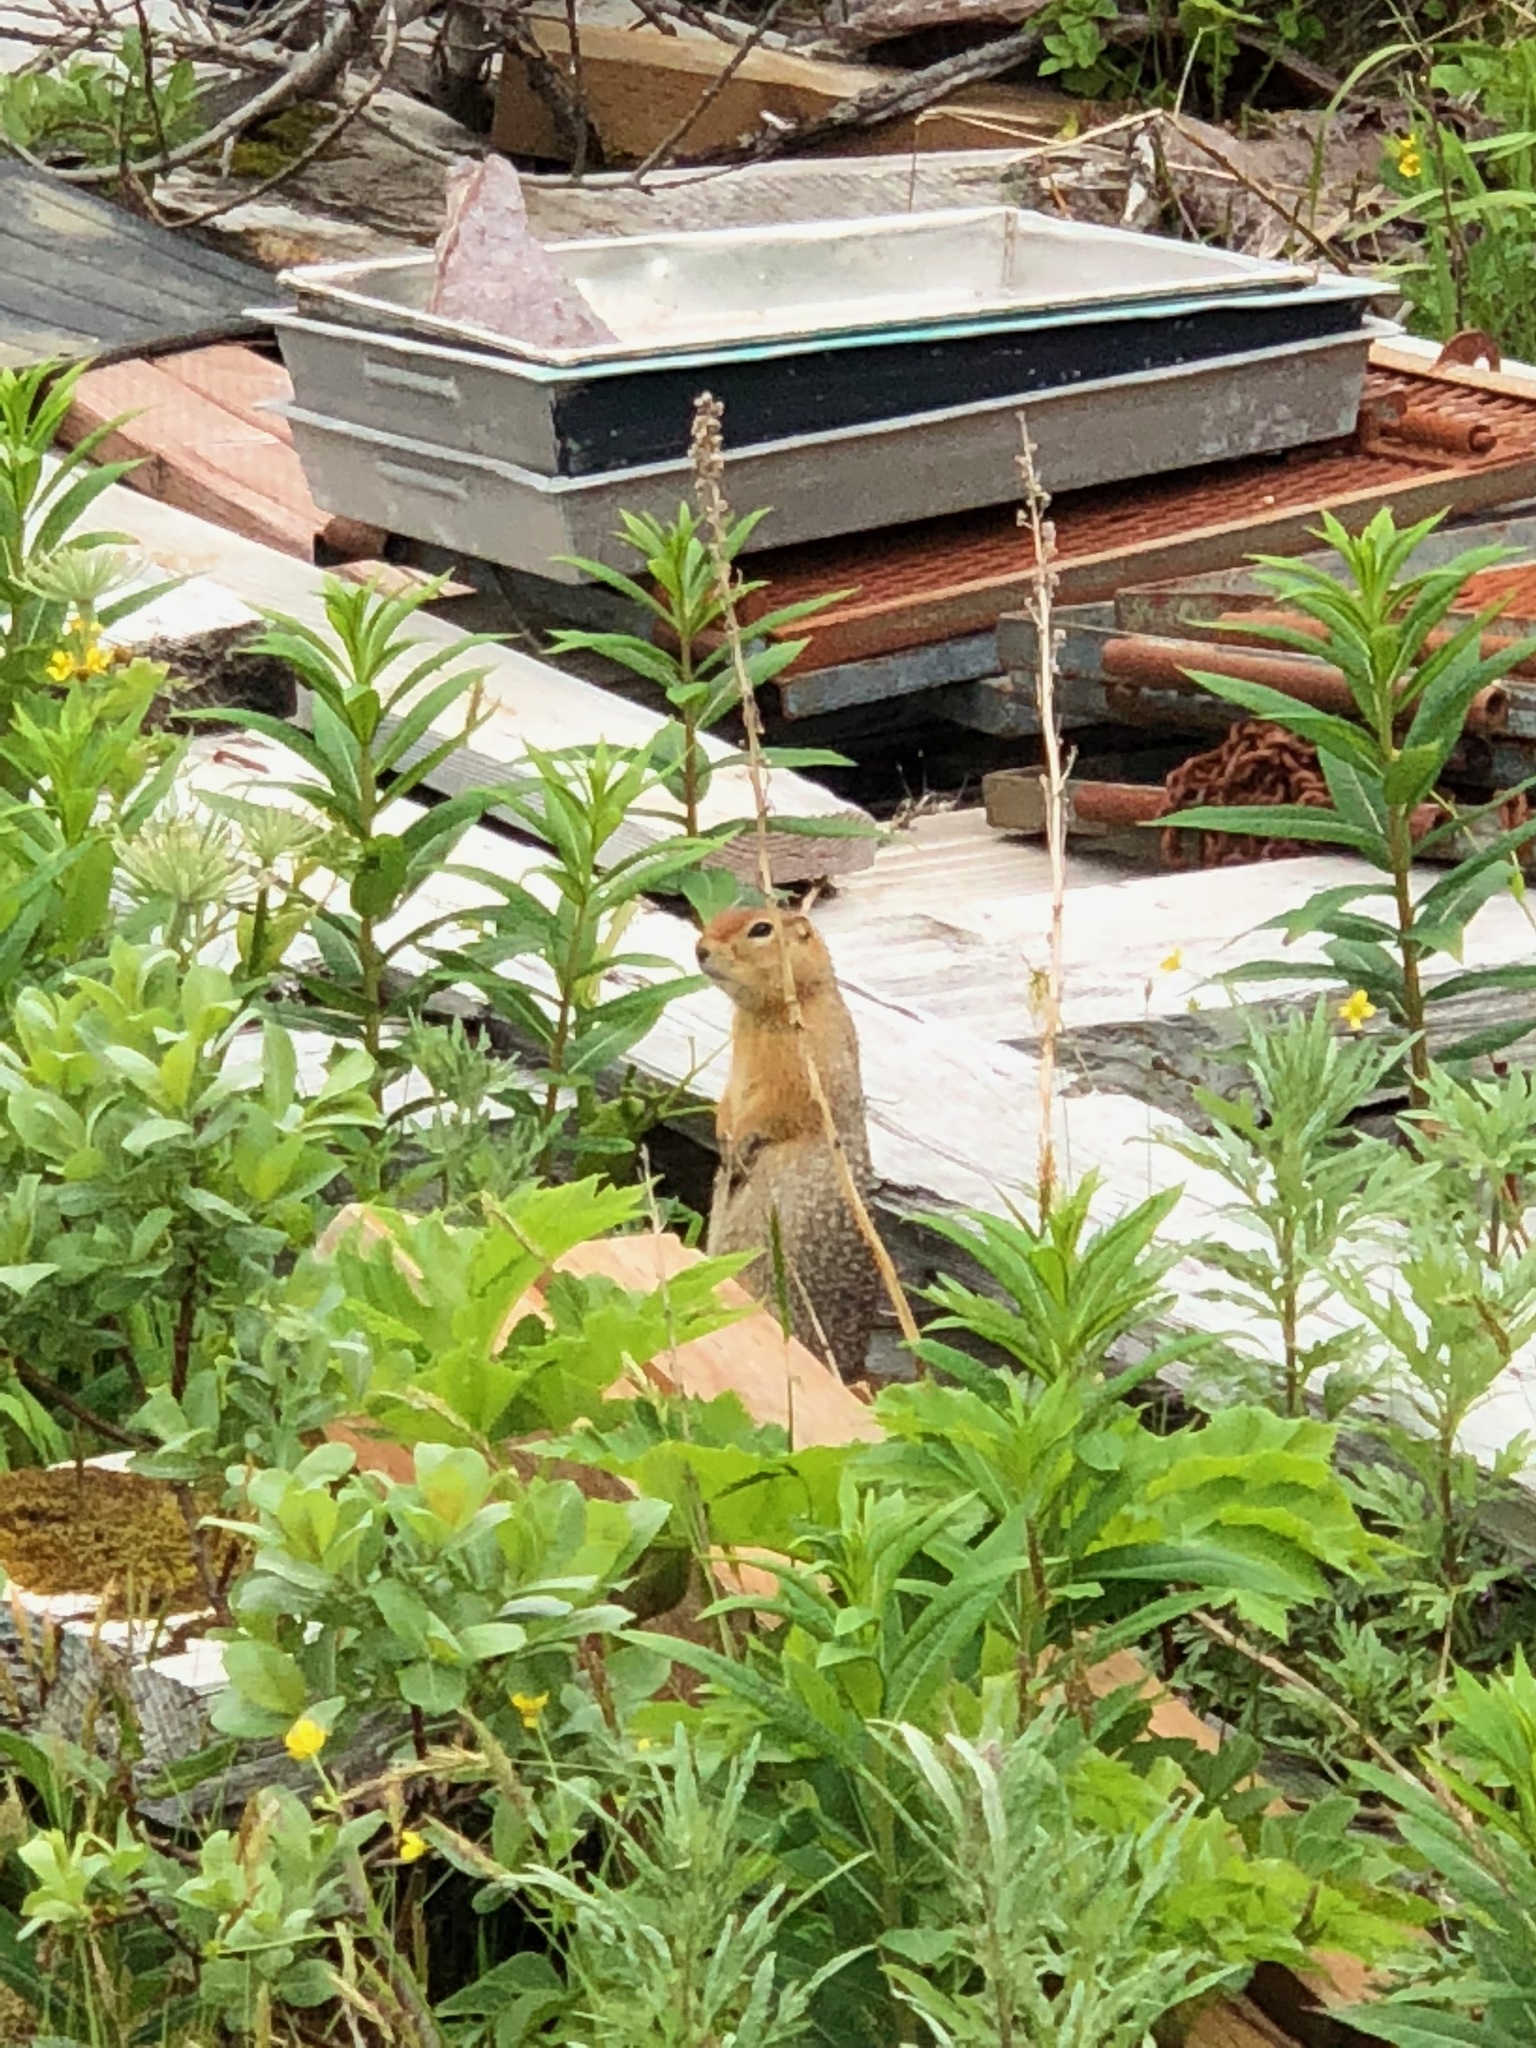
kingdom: Animalia
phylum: Chordata
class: Mammalia
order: Rodentia
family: Sciuridae
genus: Urocitellus
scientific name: Urocitellus parryii
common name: Arctic ground squirrel
